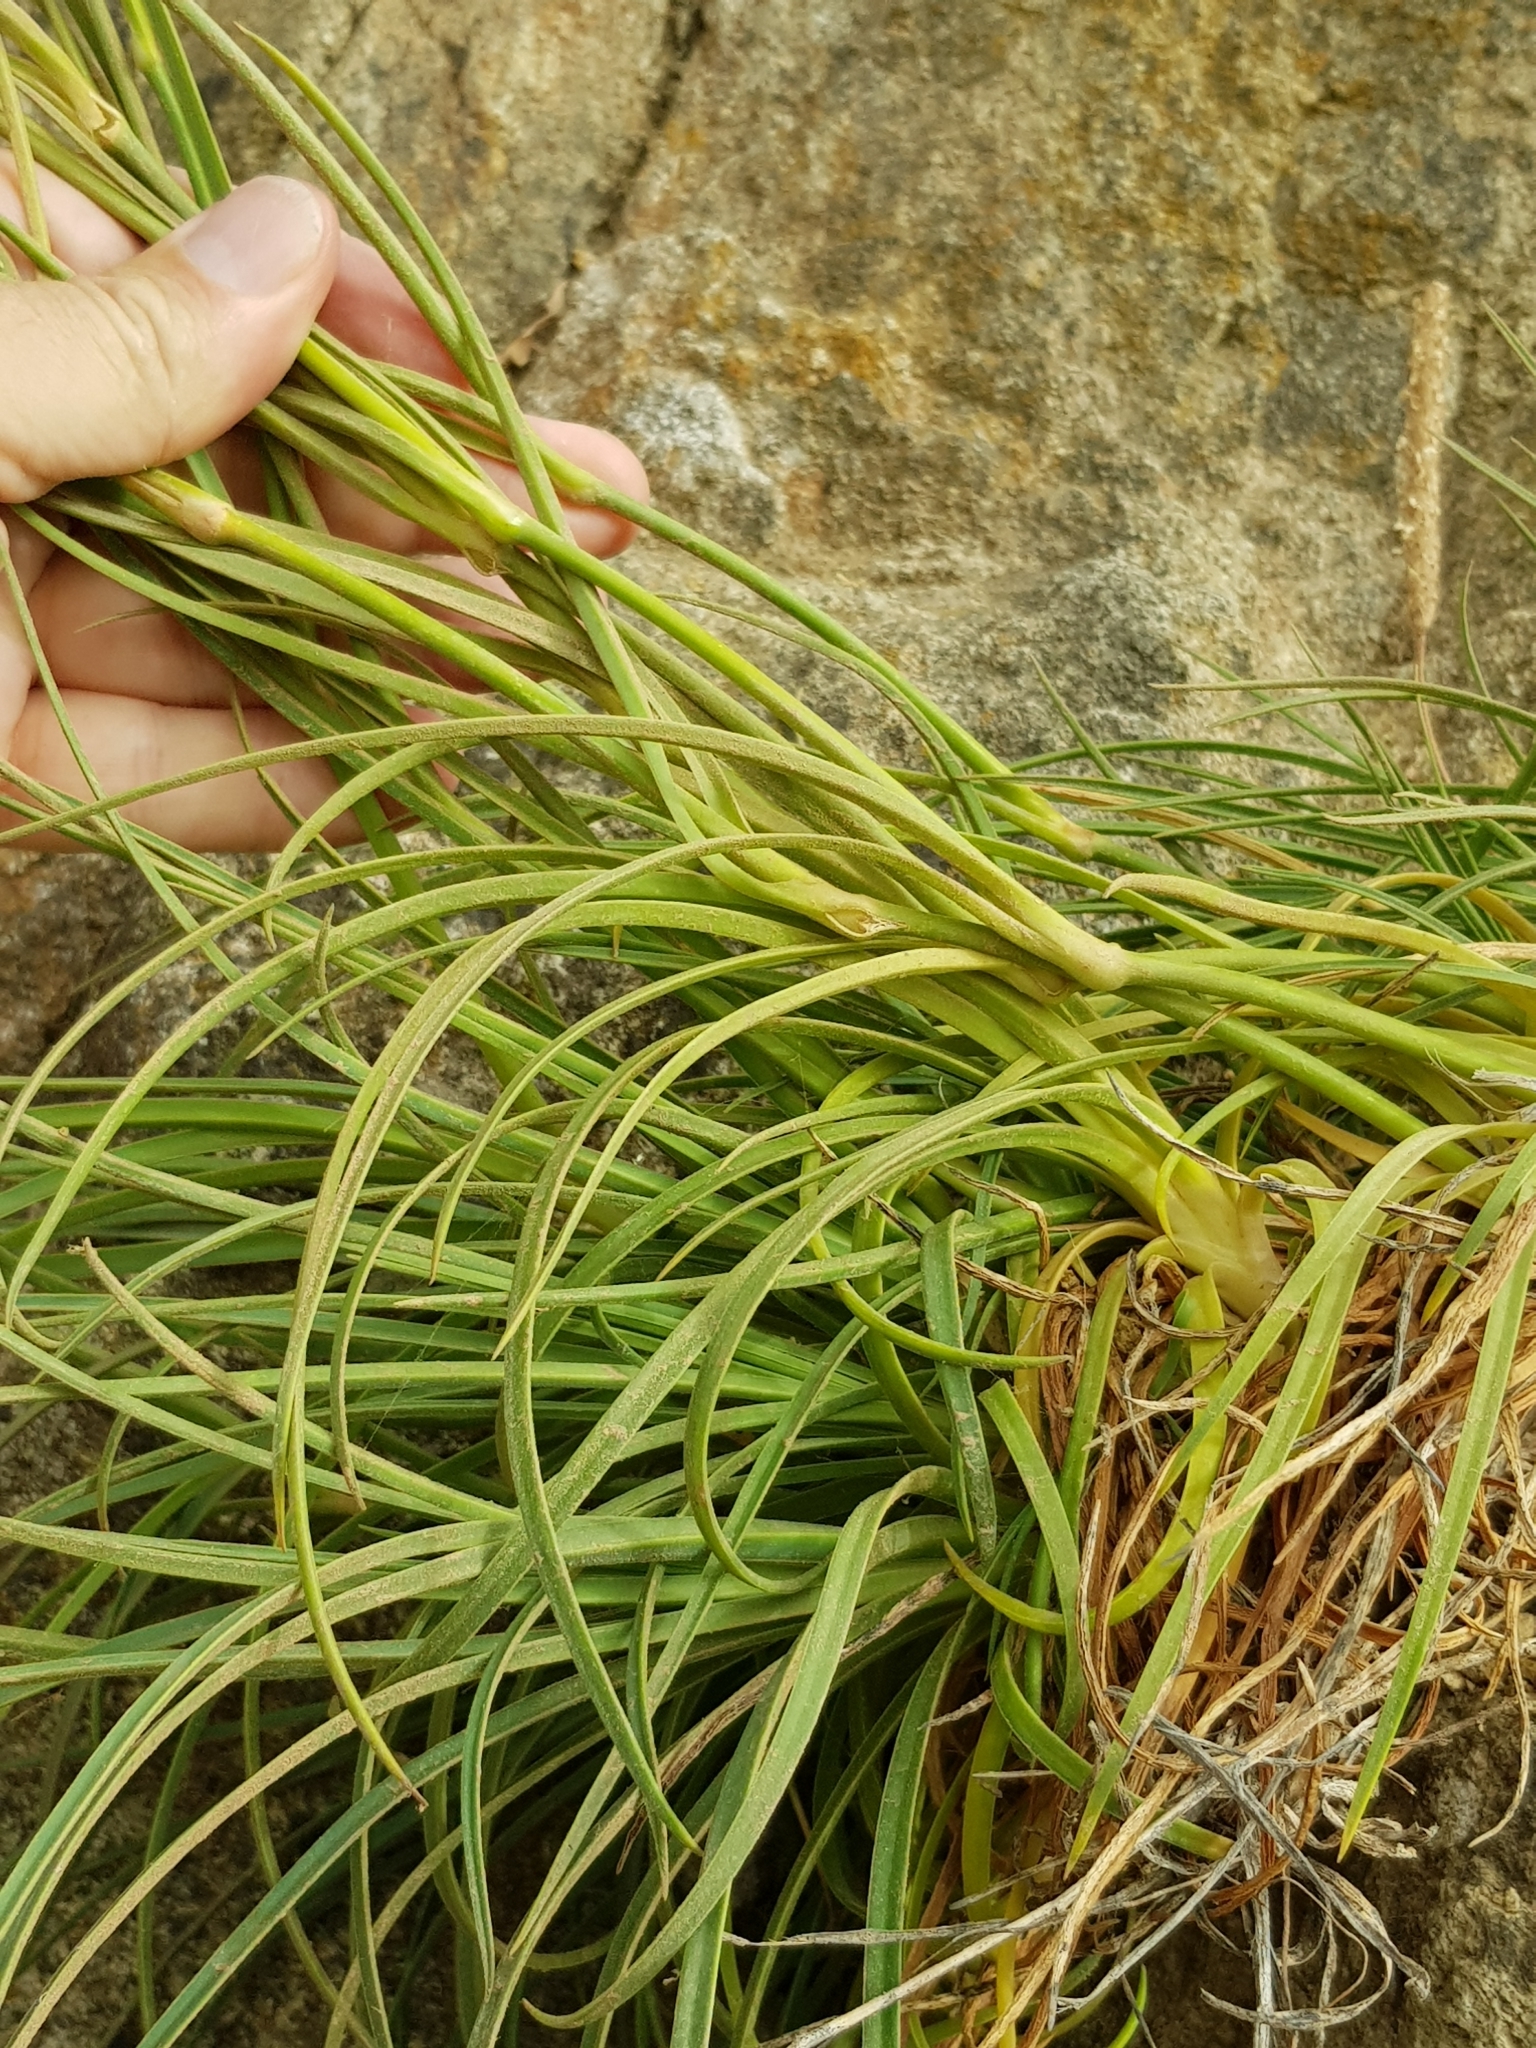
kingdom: Plantae
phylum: Tracheophyta
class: Magnoliopsida
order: Caryophyllales
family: Caryophyllaceae
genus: Dianthus
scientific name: Dianthus sylvestris
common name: Wood pink
